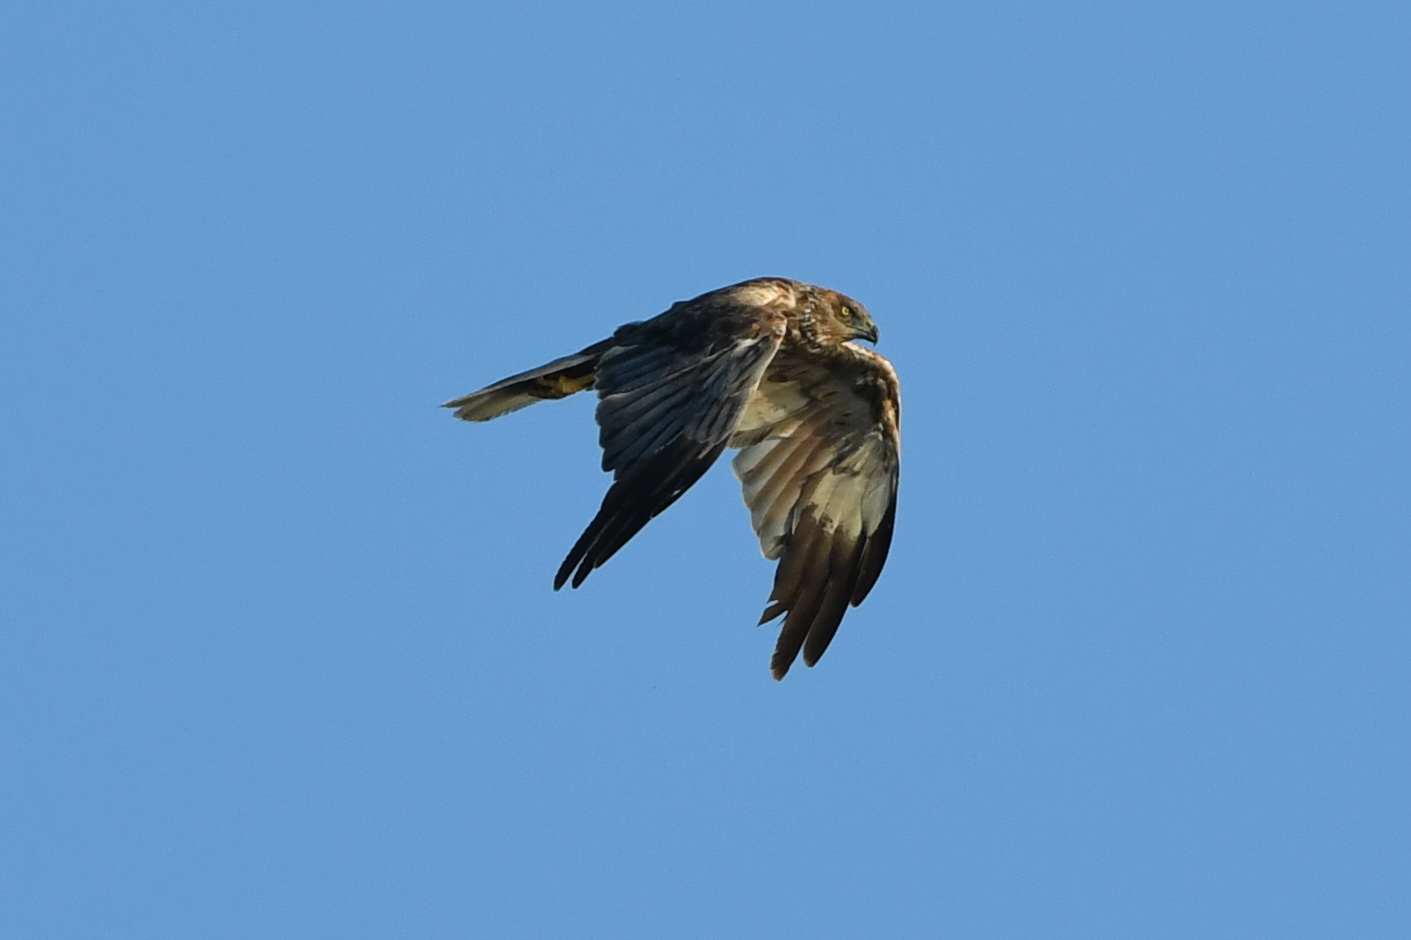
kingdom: Animalia
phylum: Chordata
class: Aves
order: Accipitriformes
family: Accipitridae
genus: Circus
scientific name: Circus aeruginosus
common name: Western marsh harrier
